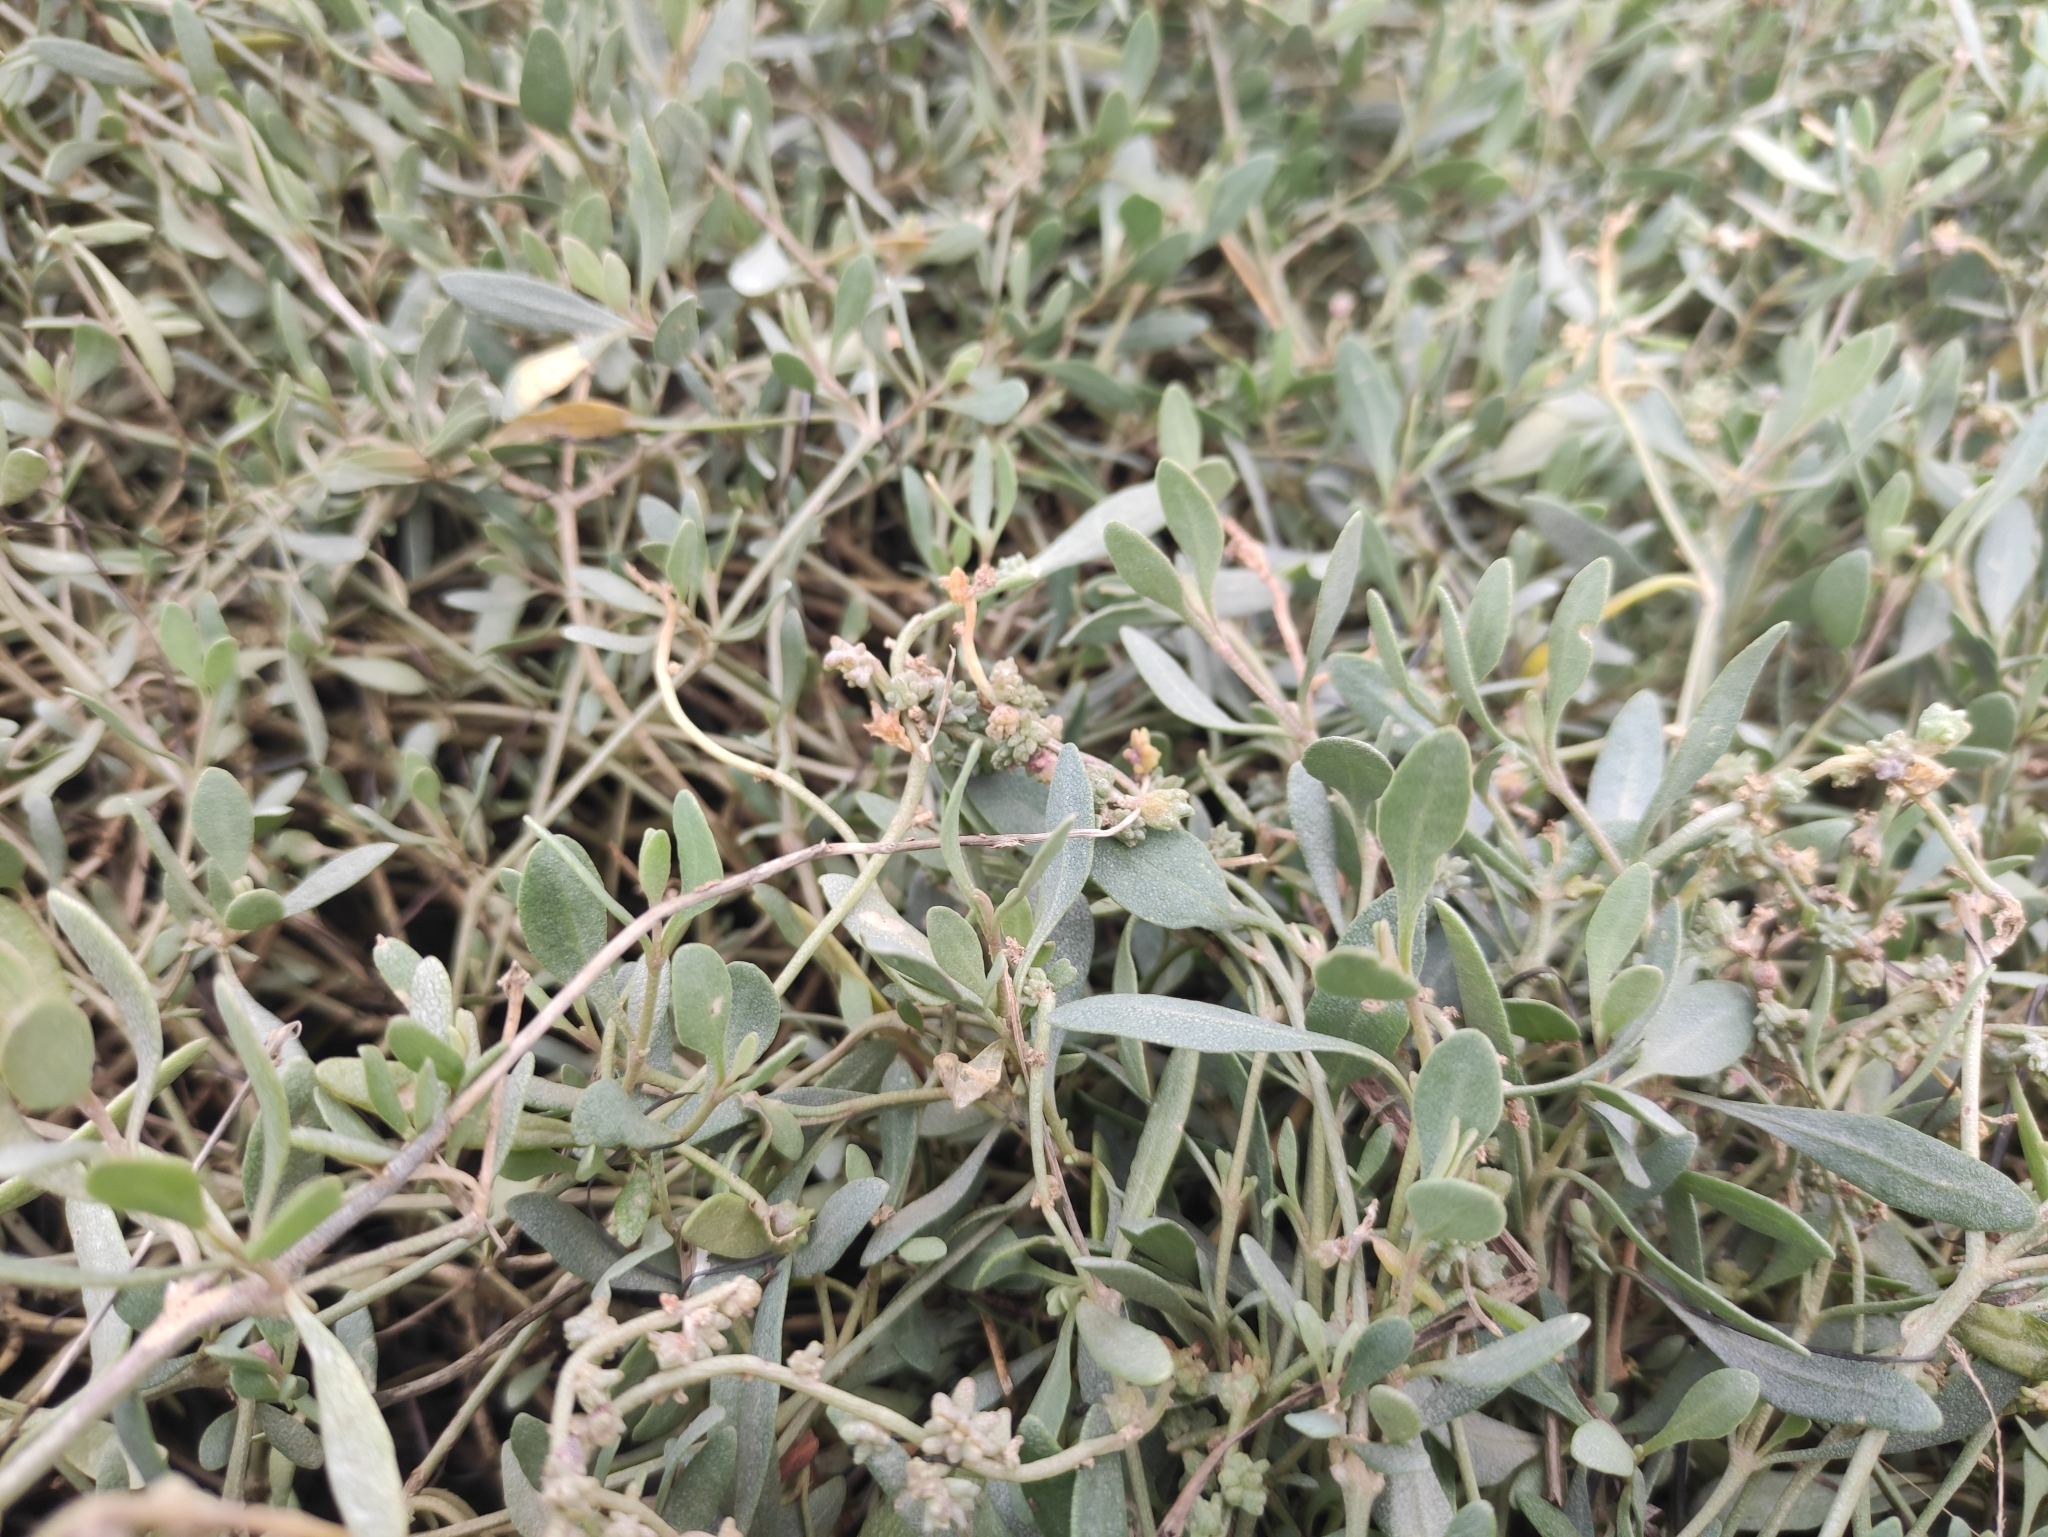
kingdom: Plantae
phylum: Tracheophyta
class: Magnoliopsida
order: Caryophyllales
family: Amaranthaceae
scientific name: Amaranthaceae
